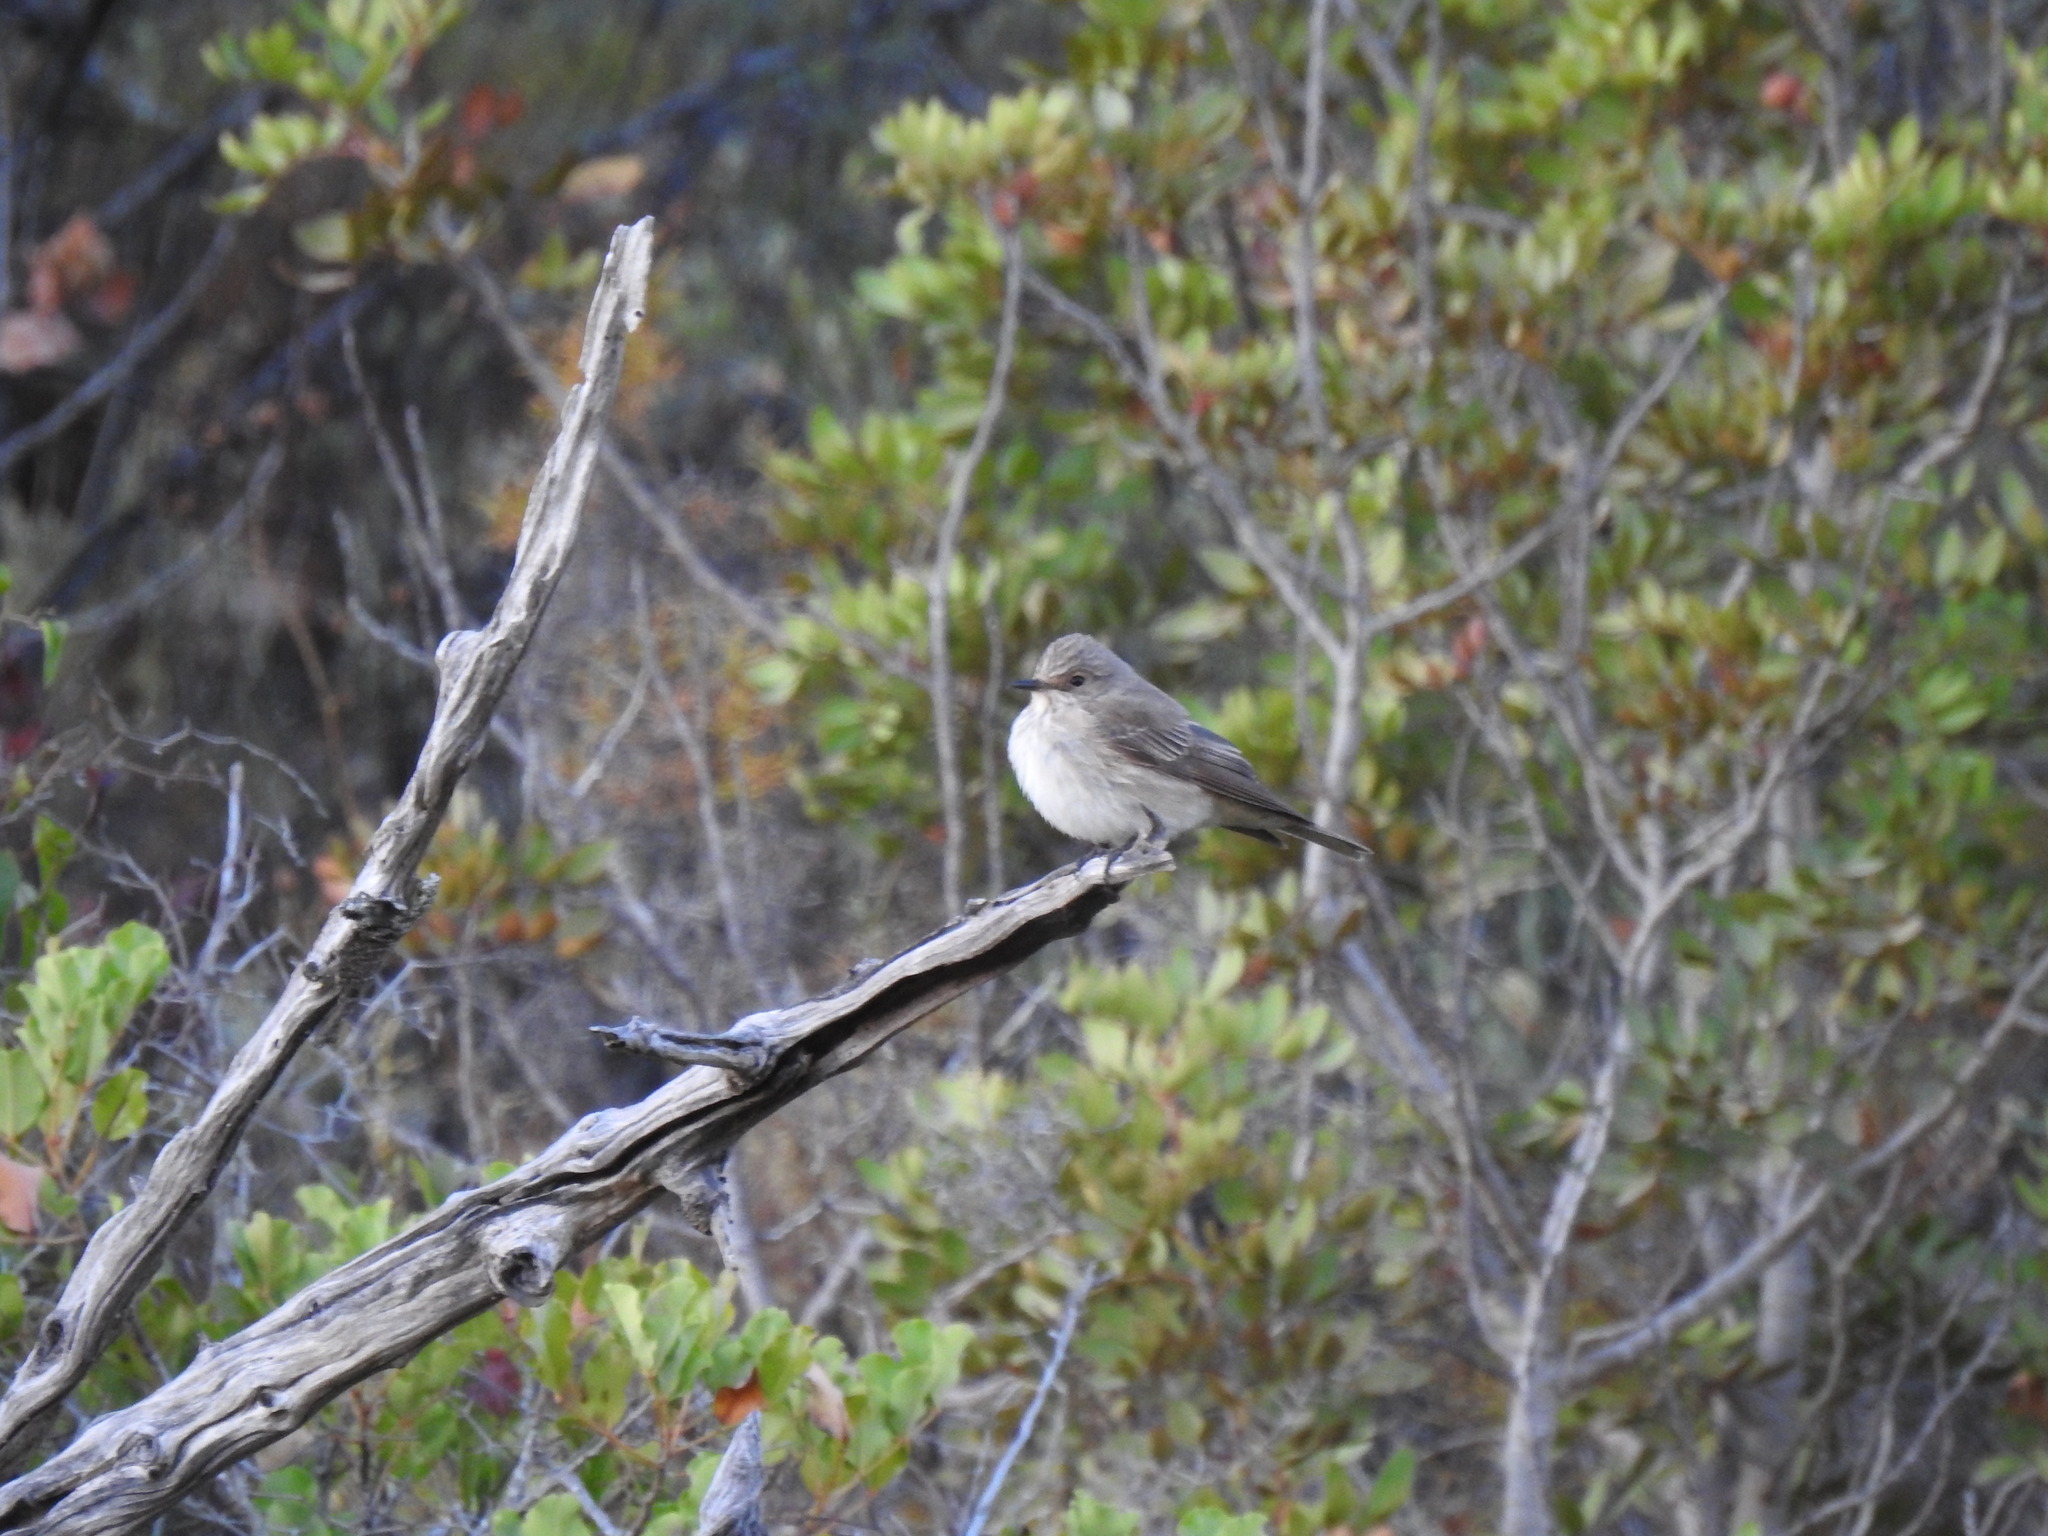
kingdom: Animalia
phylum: Chordata
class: Aves
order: Passeriformes
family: Muscicapidae
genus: Muscicapa
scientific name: Muscicapa striata
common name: Spotted flycatcher
